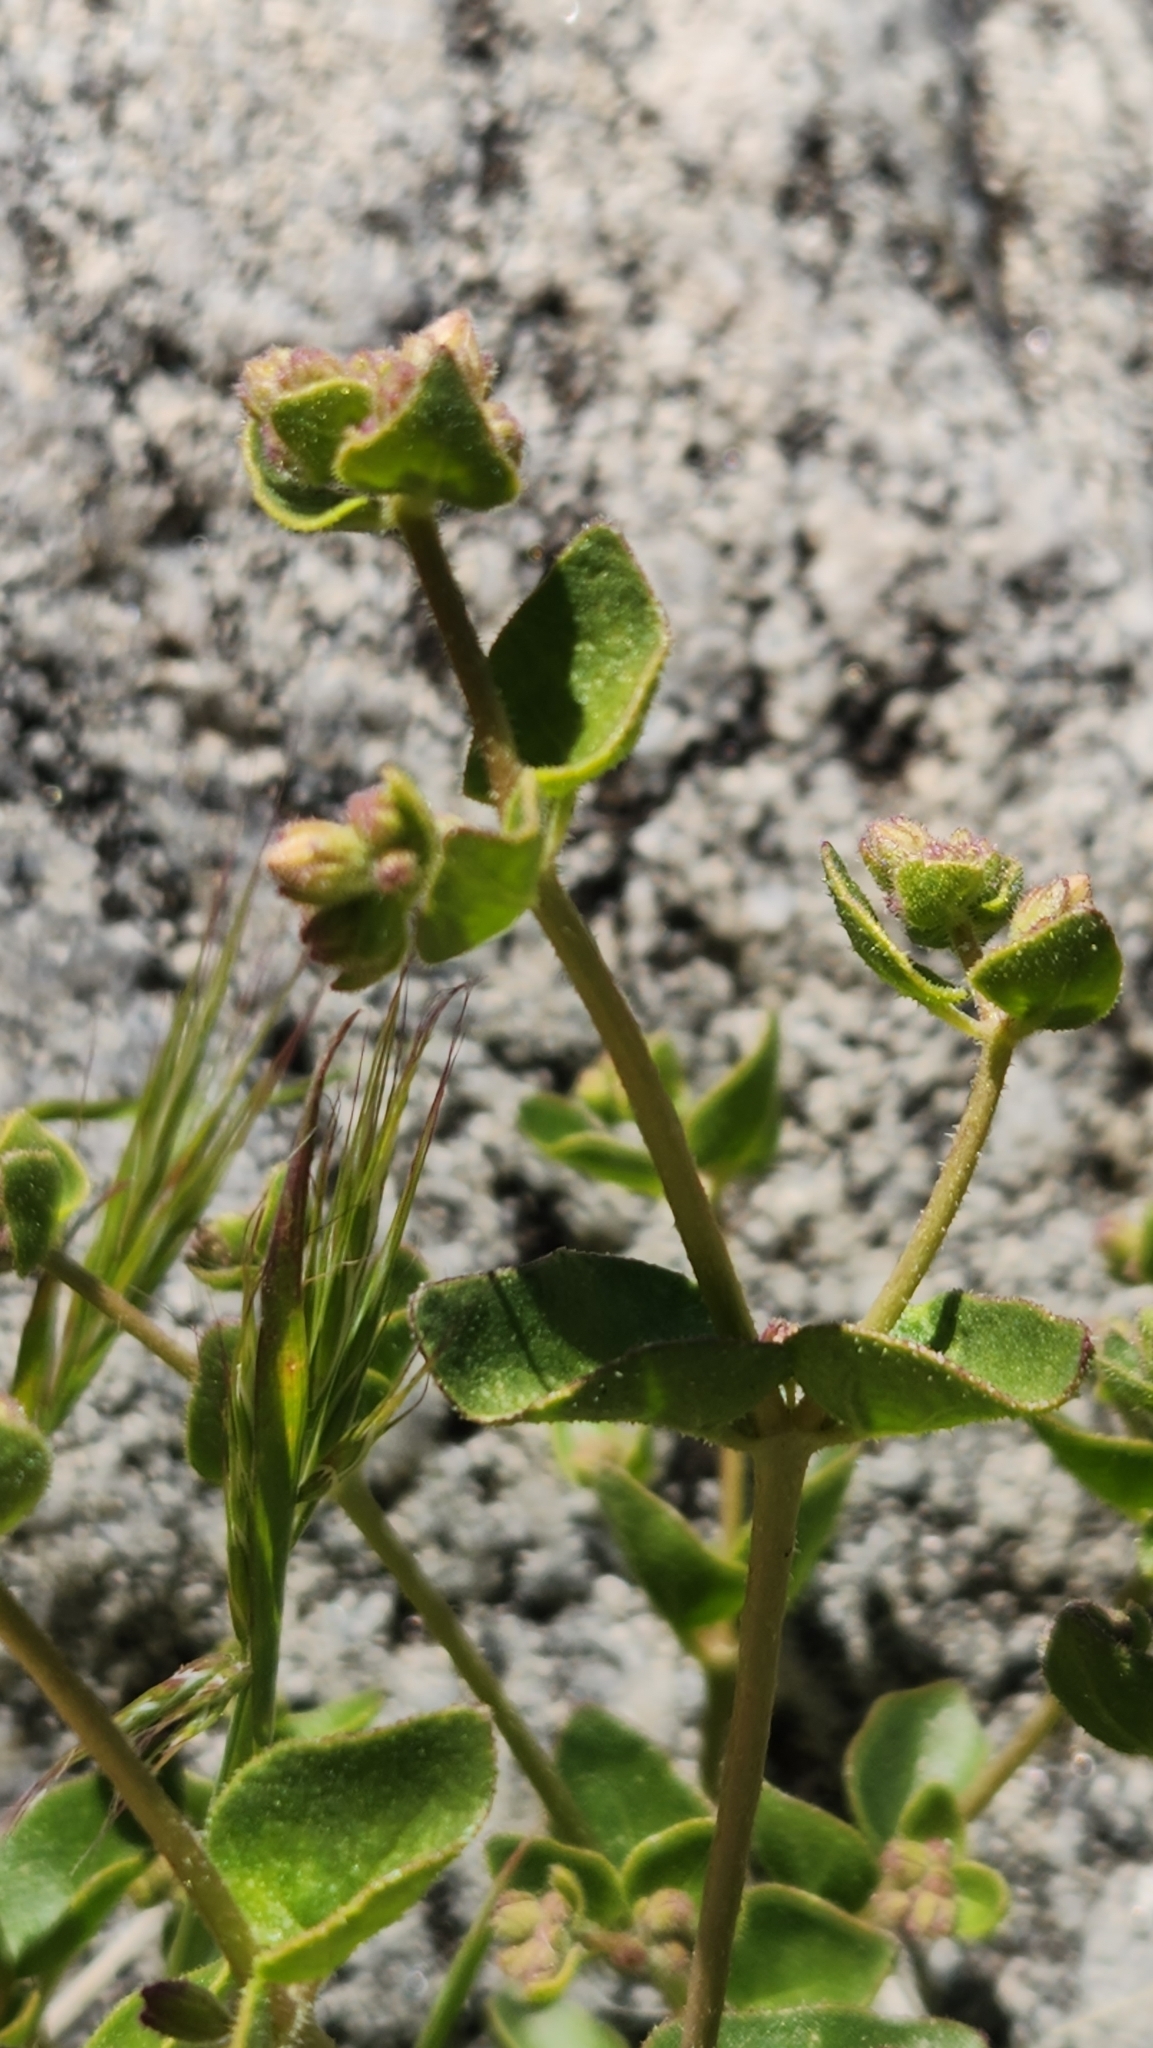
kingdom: Plantae
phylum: Tracheophyta
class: Magnoliopsida
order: Caryophyllales
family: Nyctaginaceae
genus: Mirabilis
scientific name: Mirabilis laevis
